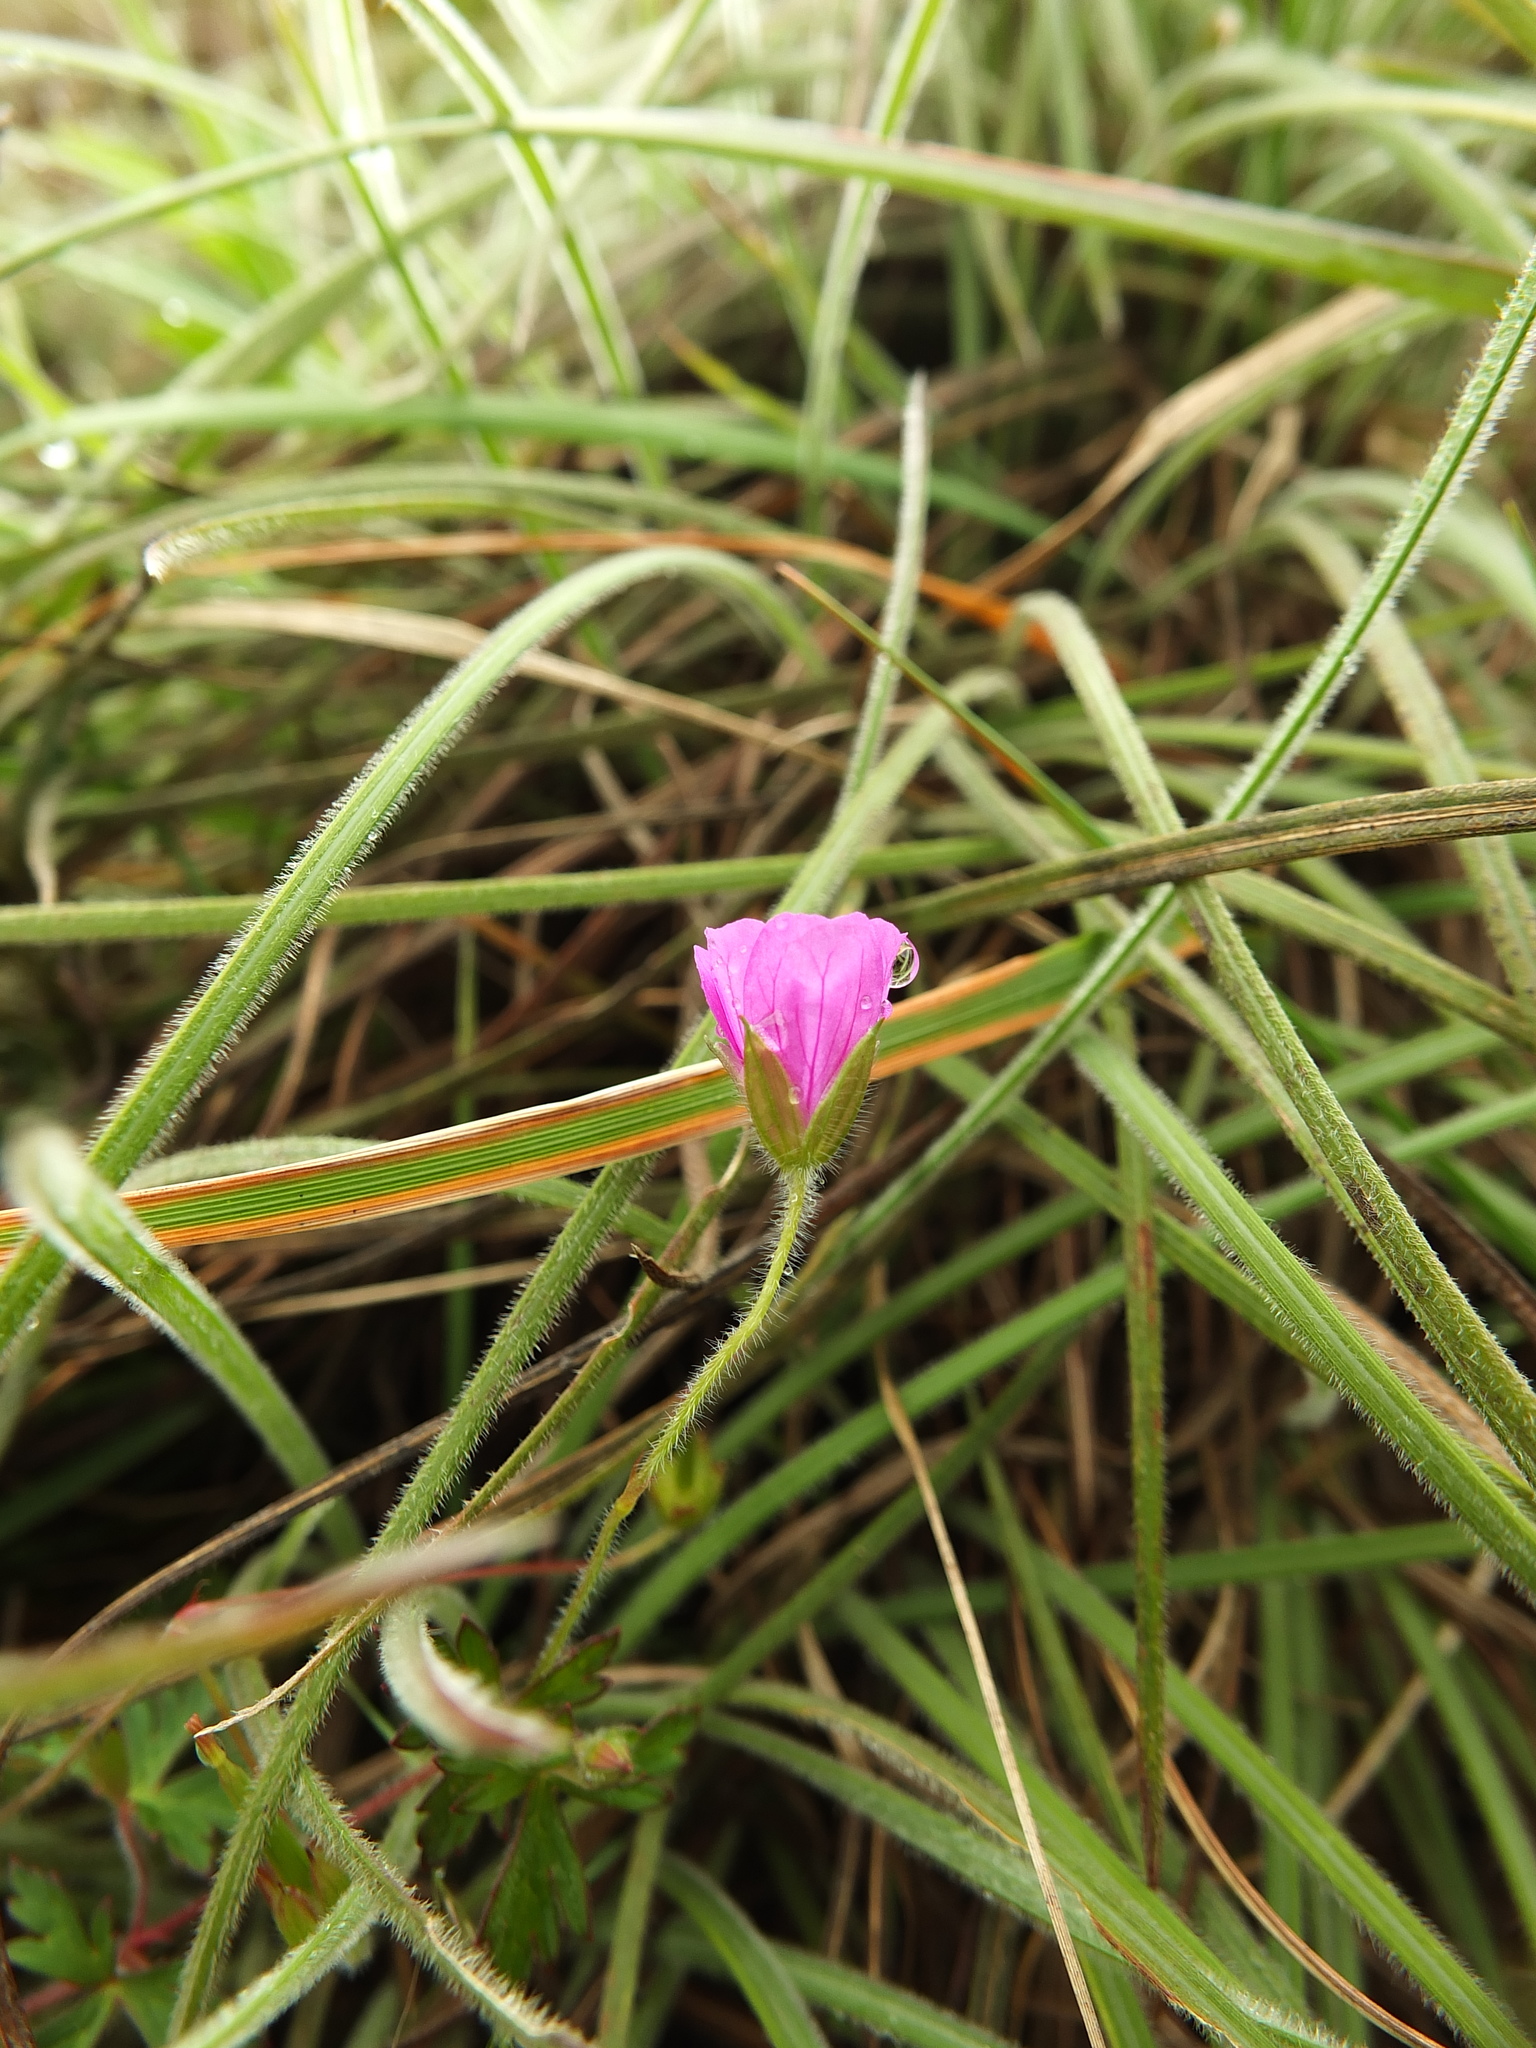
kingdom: Plantae
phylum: Tracheophyta
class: Magnoliopsida
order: Geraniales
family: Geraniaceae
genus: Geranium
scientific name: Geranium nepalense
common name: Nepalese crane's-bill
